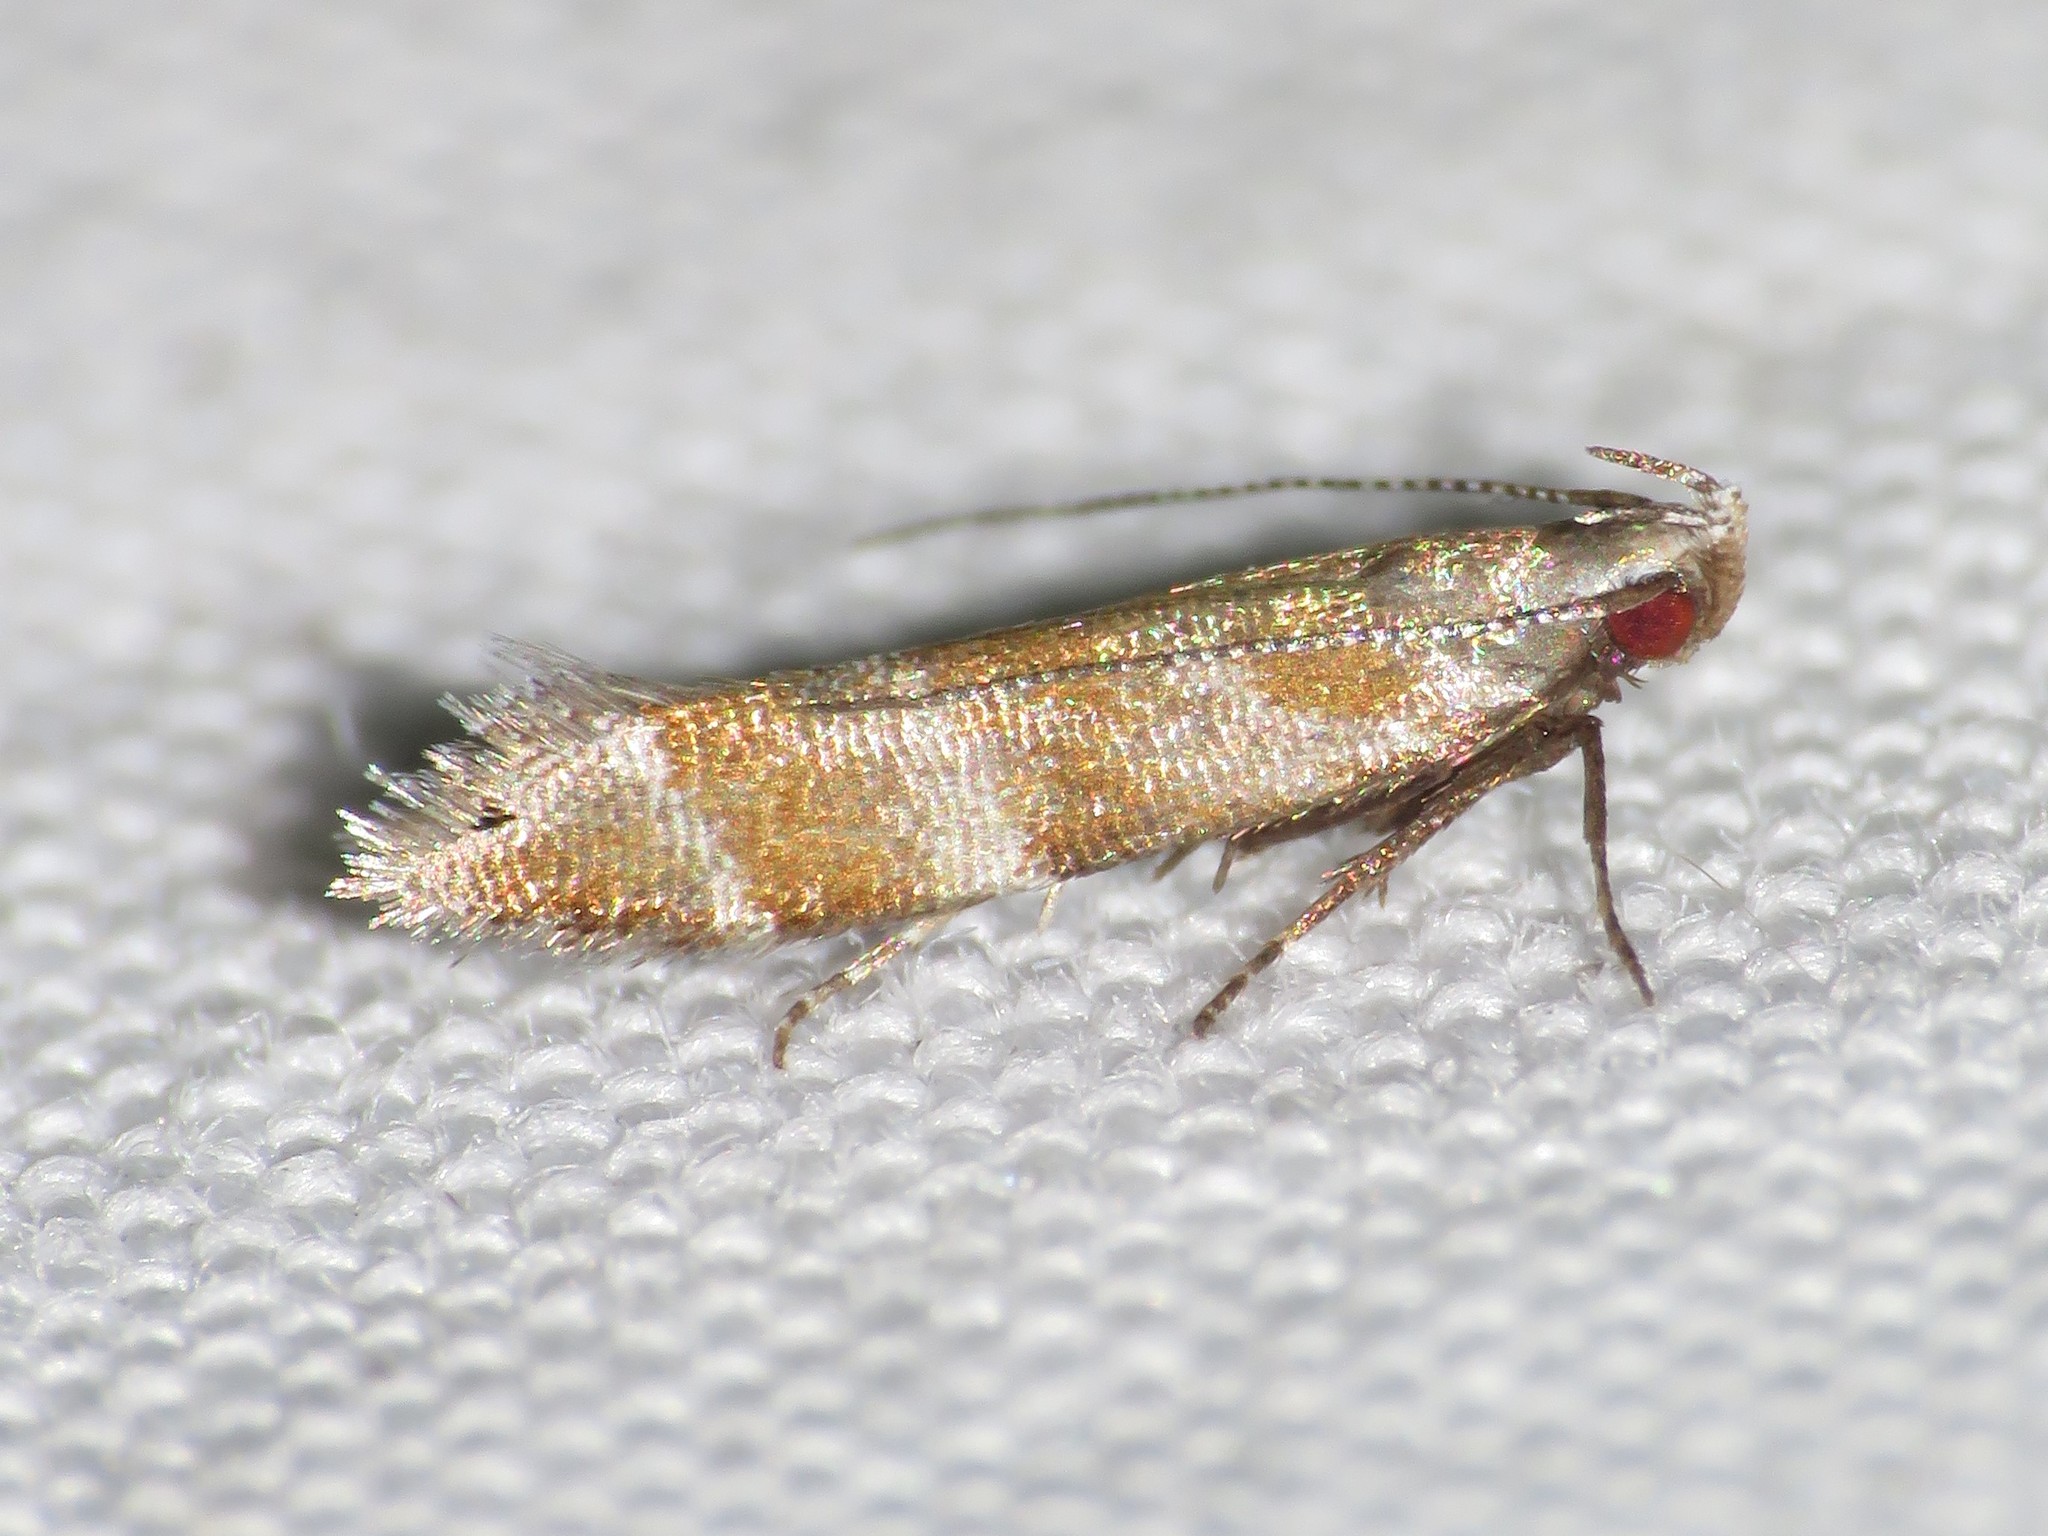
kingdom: Animalia
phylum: Arthropoda
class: Insecta
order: Lepidoptera
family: Gelechiidae
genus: Battaristis
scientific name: Battaristis vittella
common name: Orange stripe-backed moth
